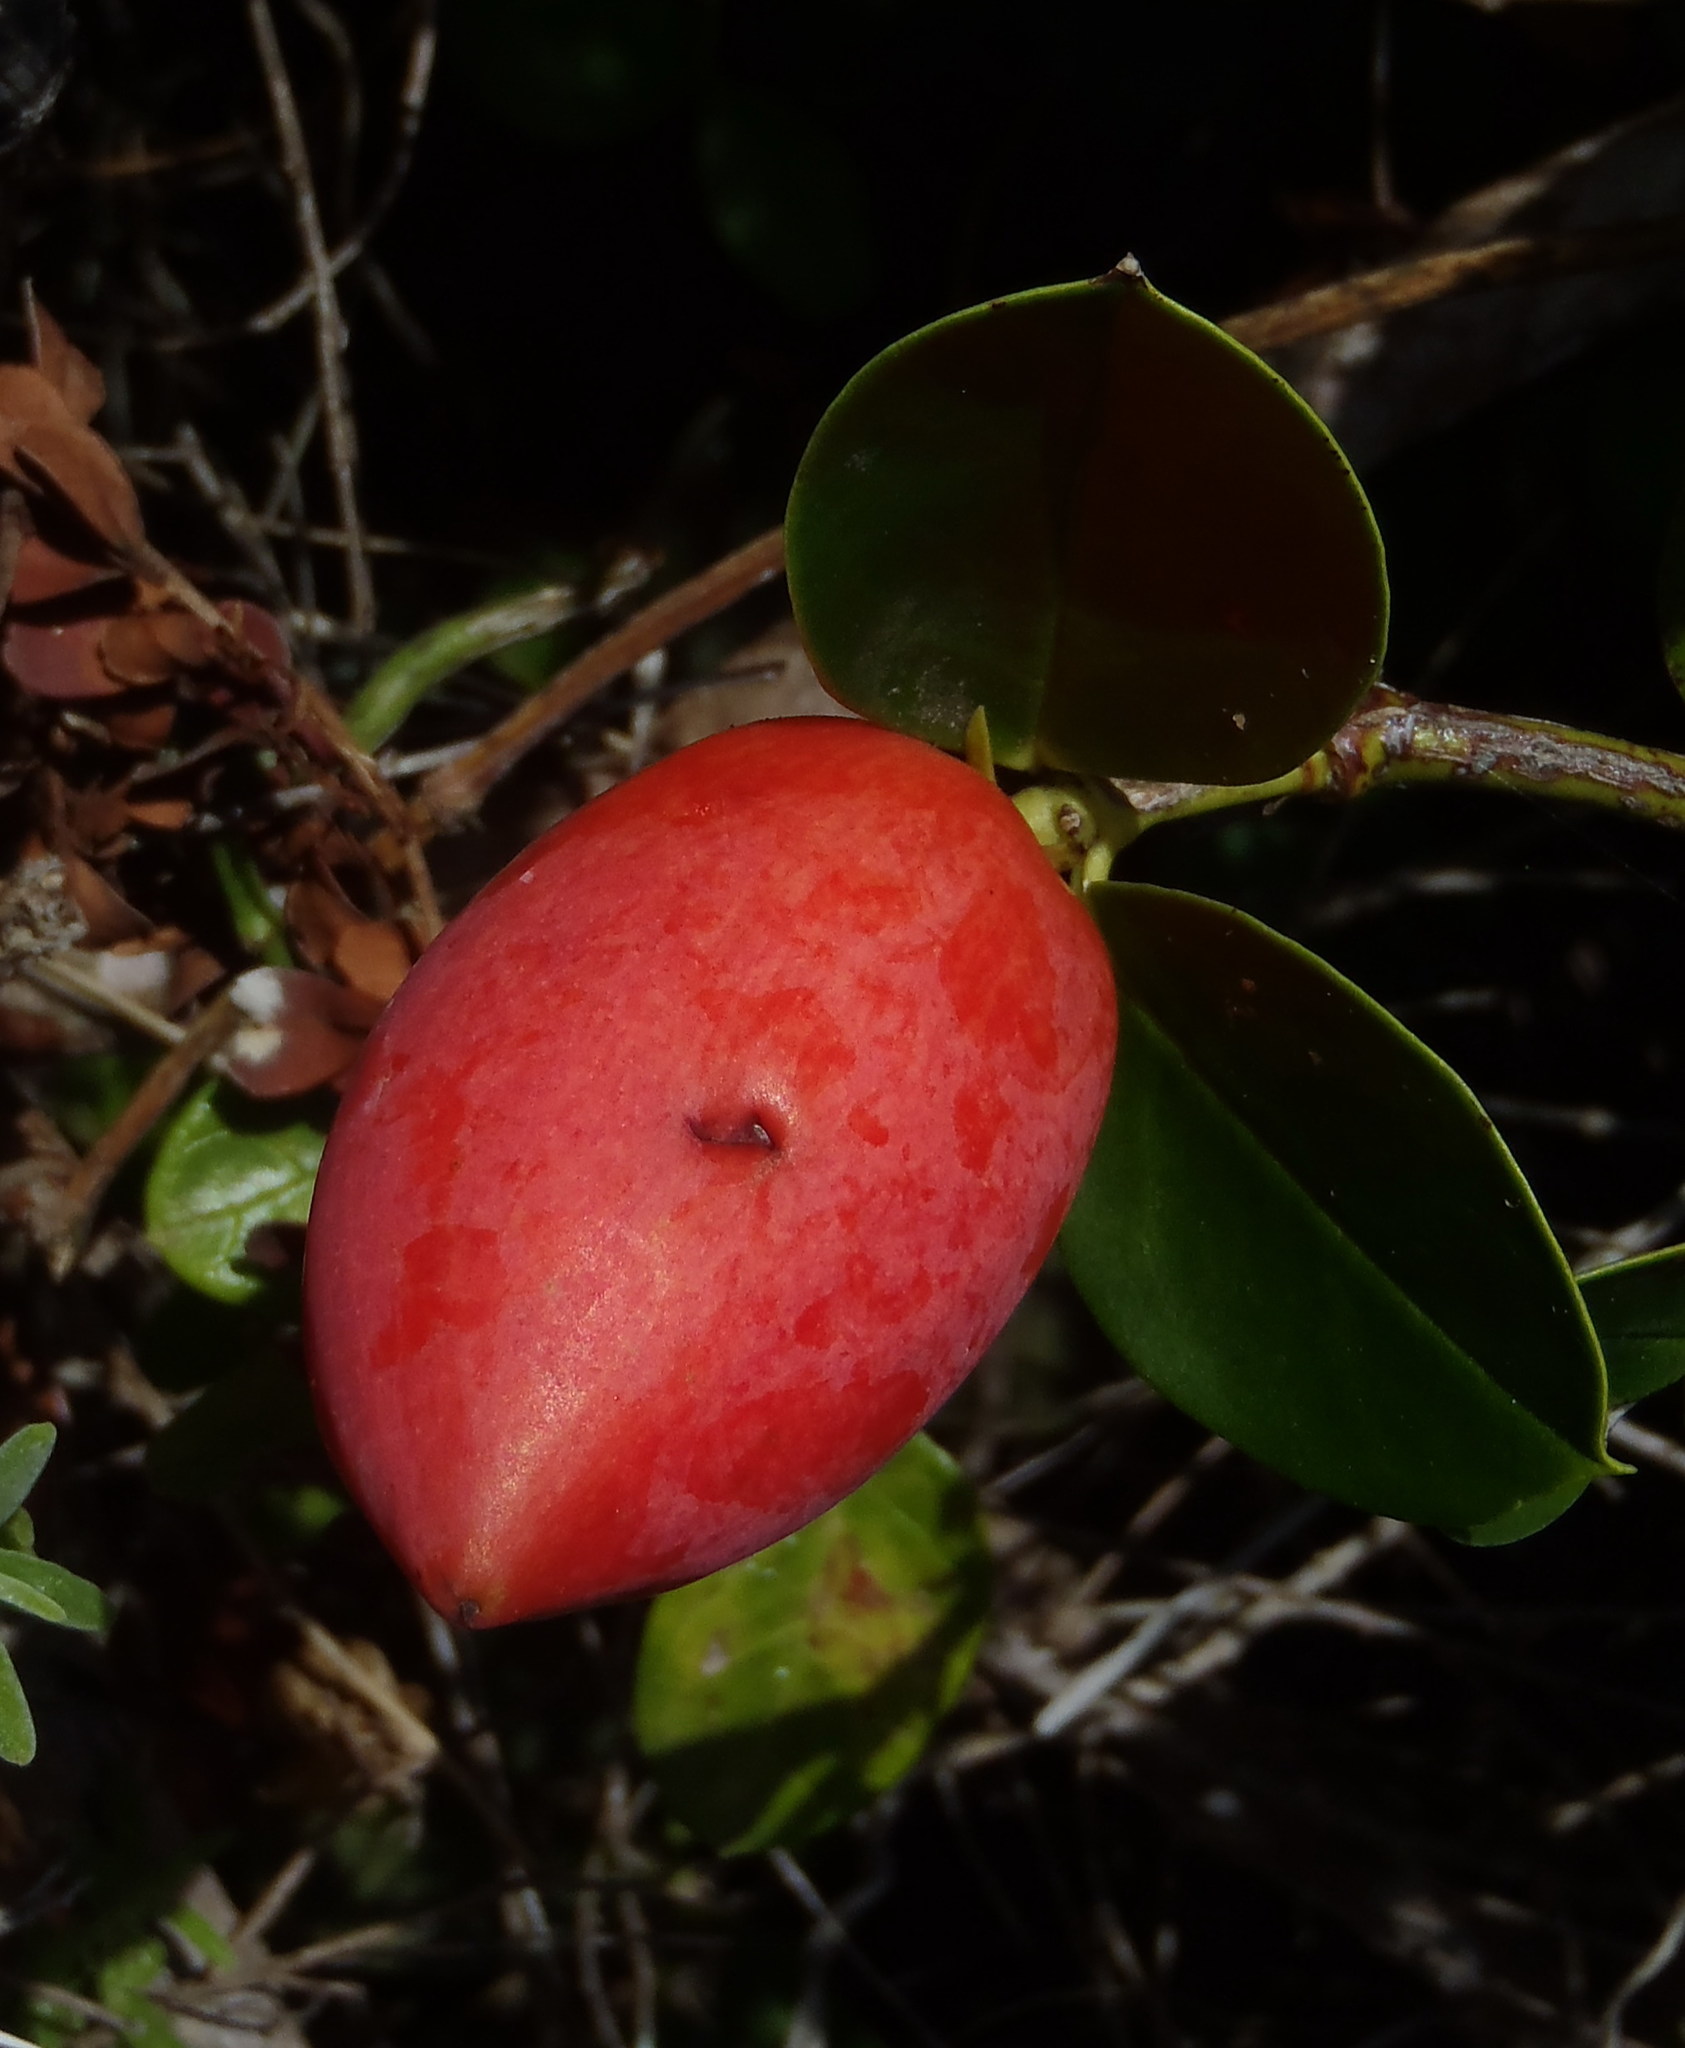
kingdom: Plantae
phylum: Tracheophyta
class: Magnoliopsida
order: Gentianales
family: Apocynaceae
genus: Carissa
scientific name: Carissa macrocarpa
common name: Natal plum
